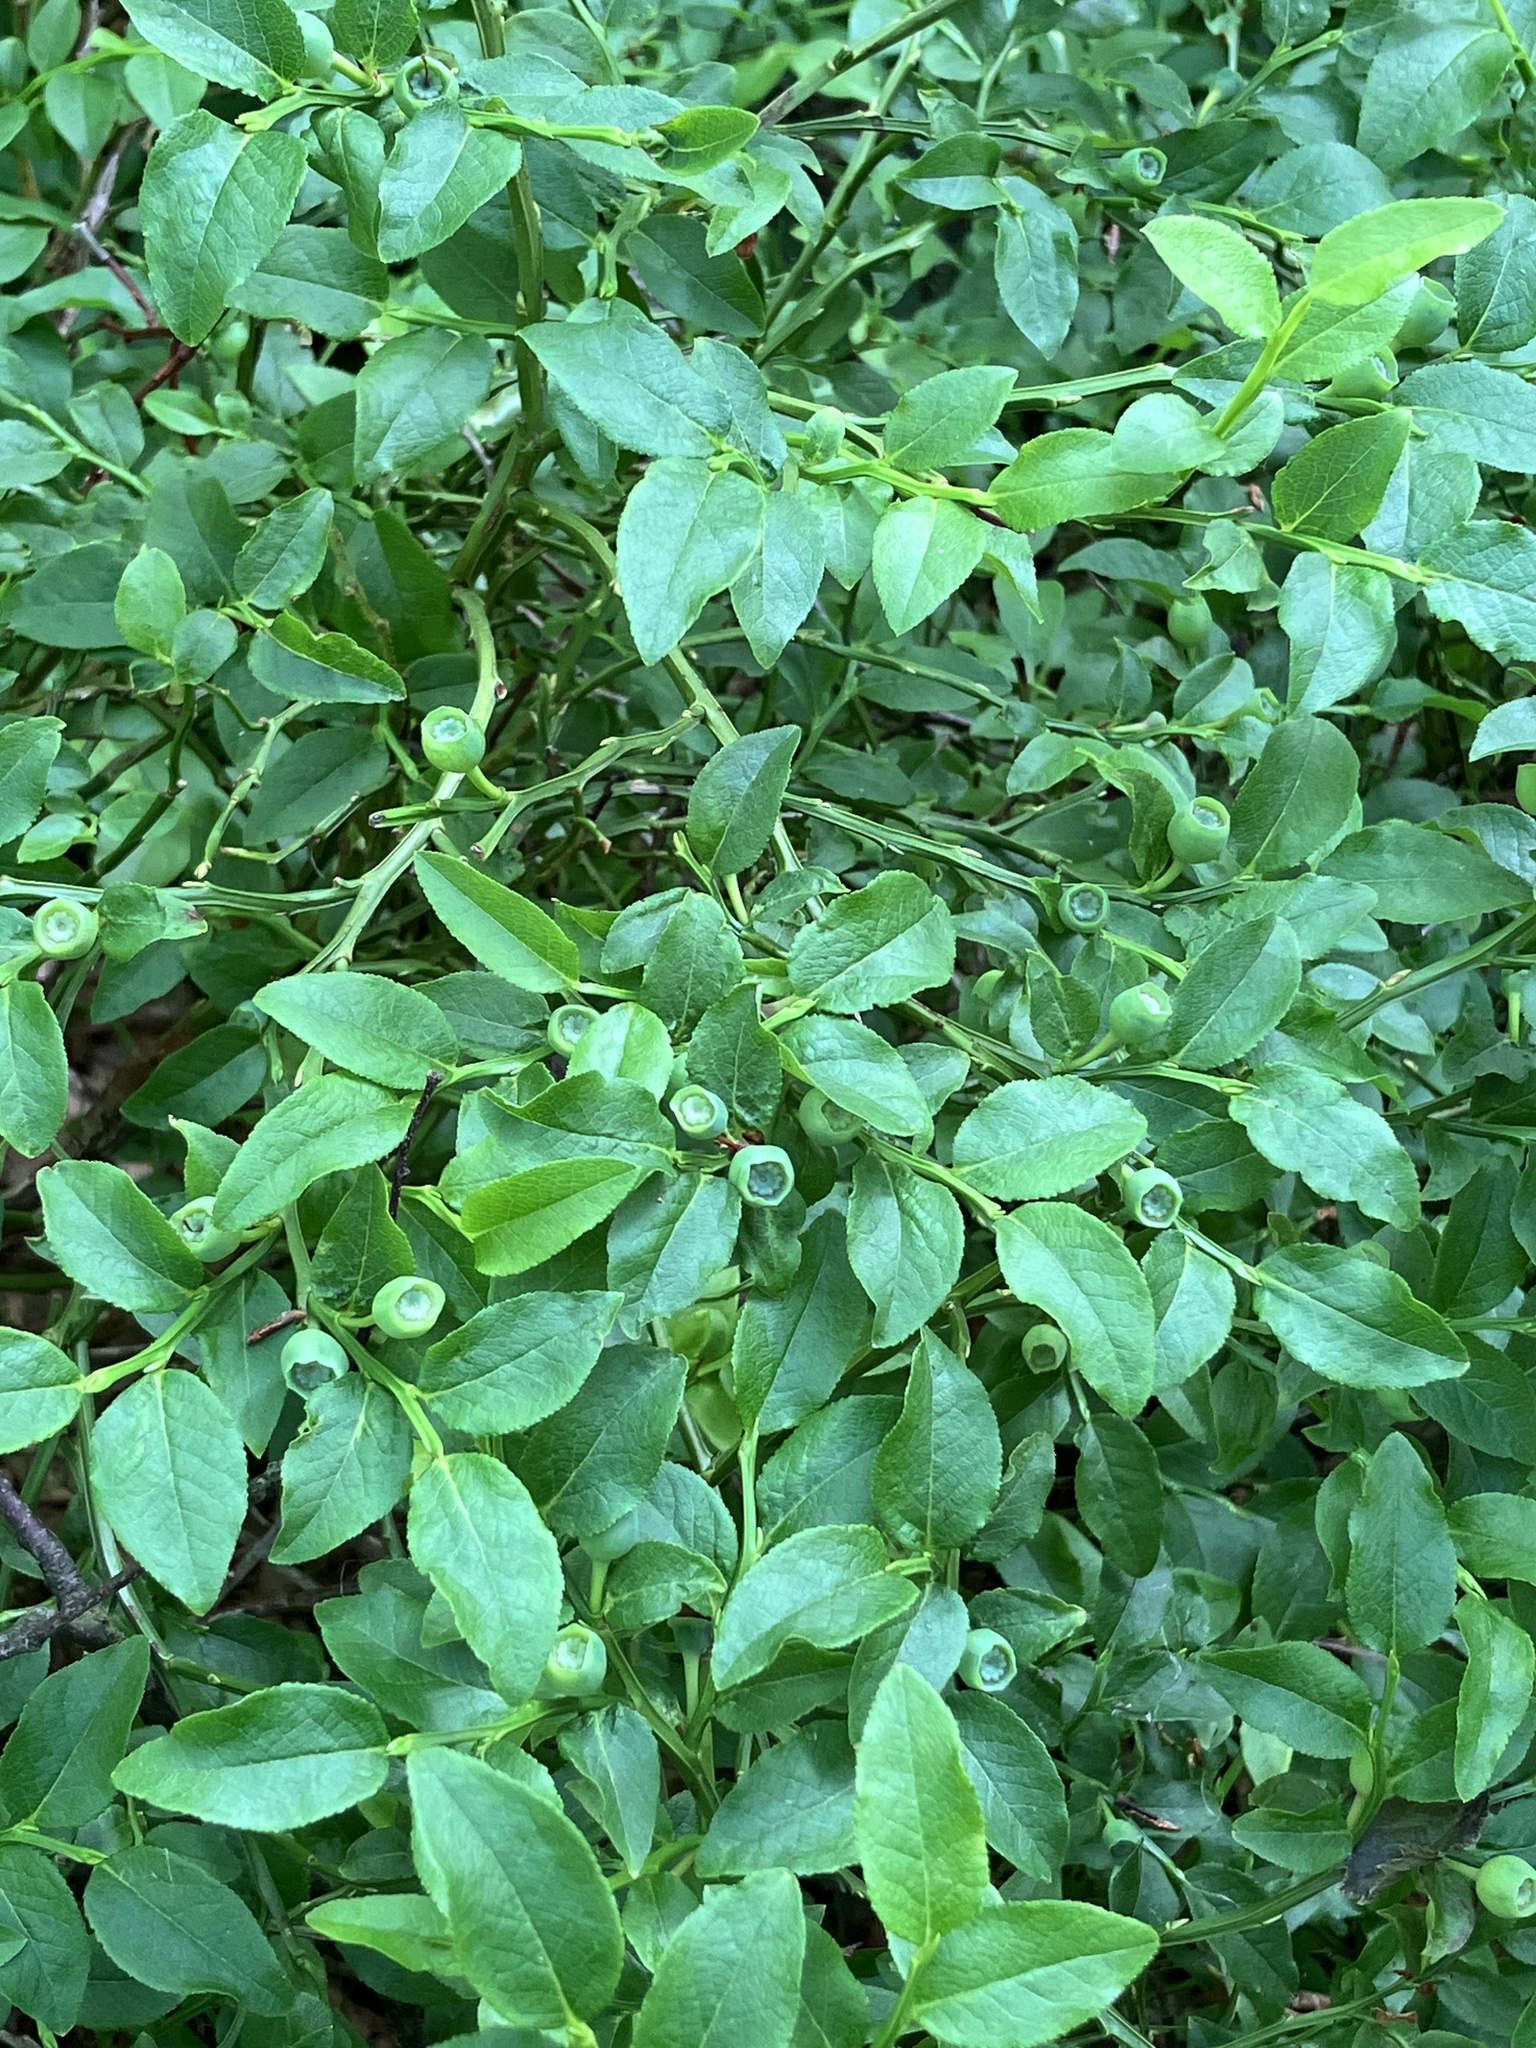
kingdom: Plantae
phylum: Tracheophyta
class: Magnoliopsida
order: Ericales
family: Ericaceae
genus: Vaccinium
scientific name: Vaccinium myrtillus
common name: Bilberry
